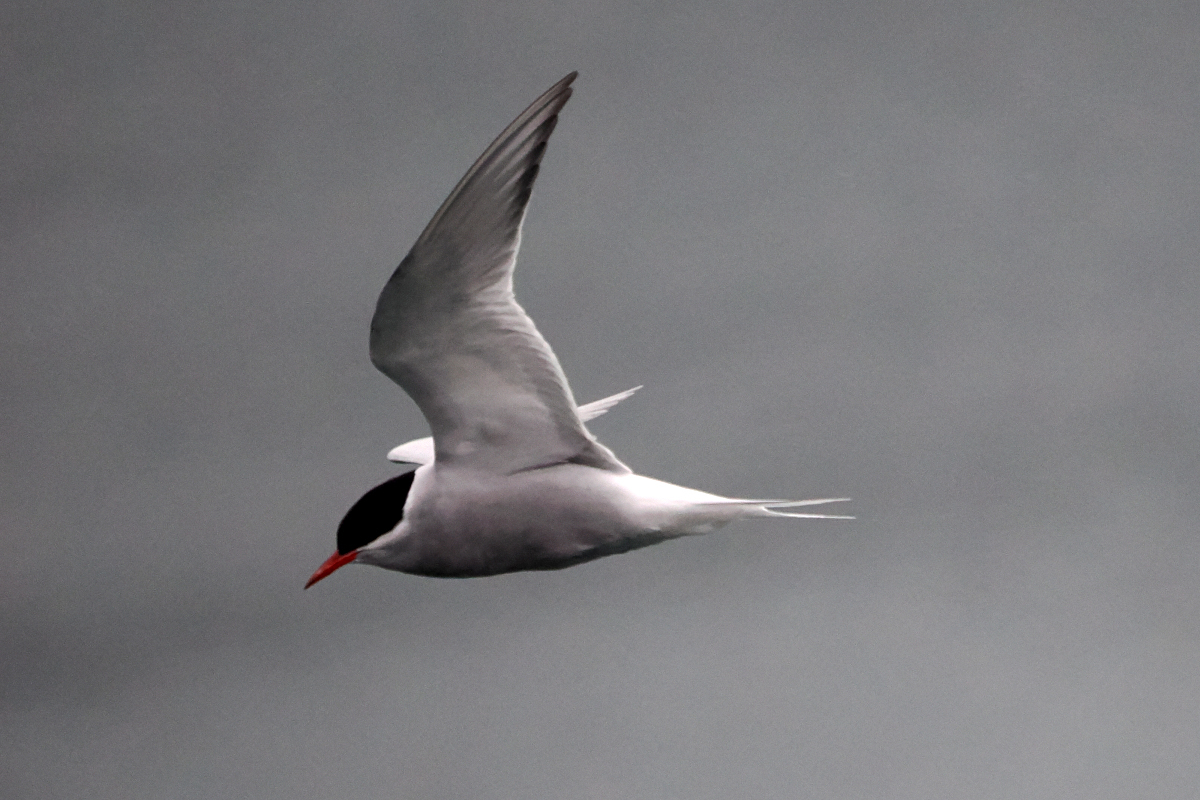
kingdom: Animalia
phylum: Chordata
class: Aves
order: Charadriiformes
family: Laridae
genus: Sterna
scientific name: Sterna vittata
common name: Antarctic tern
